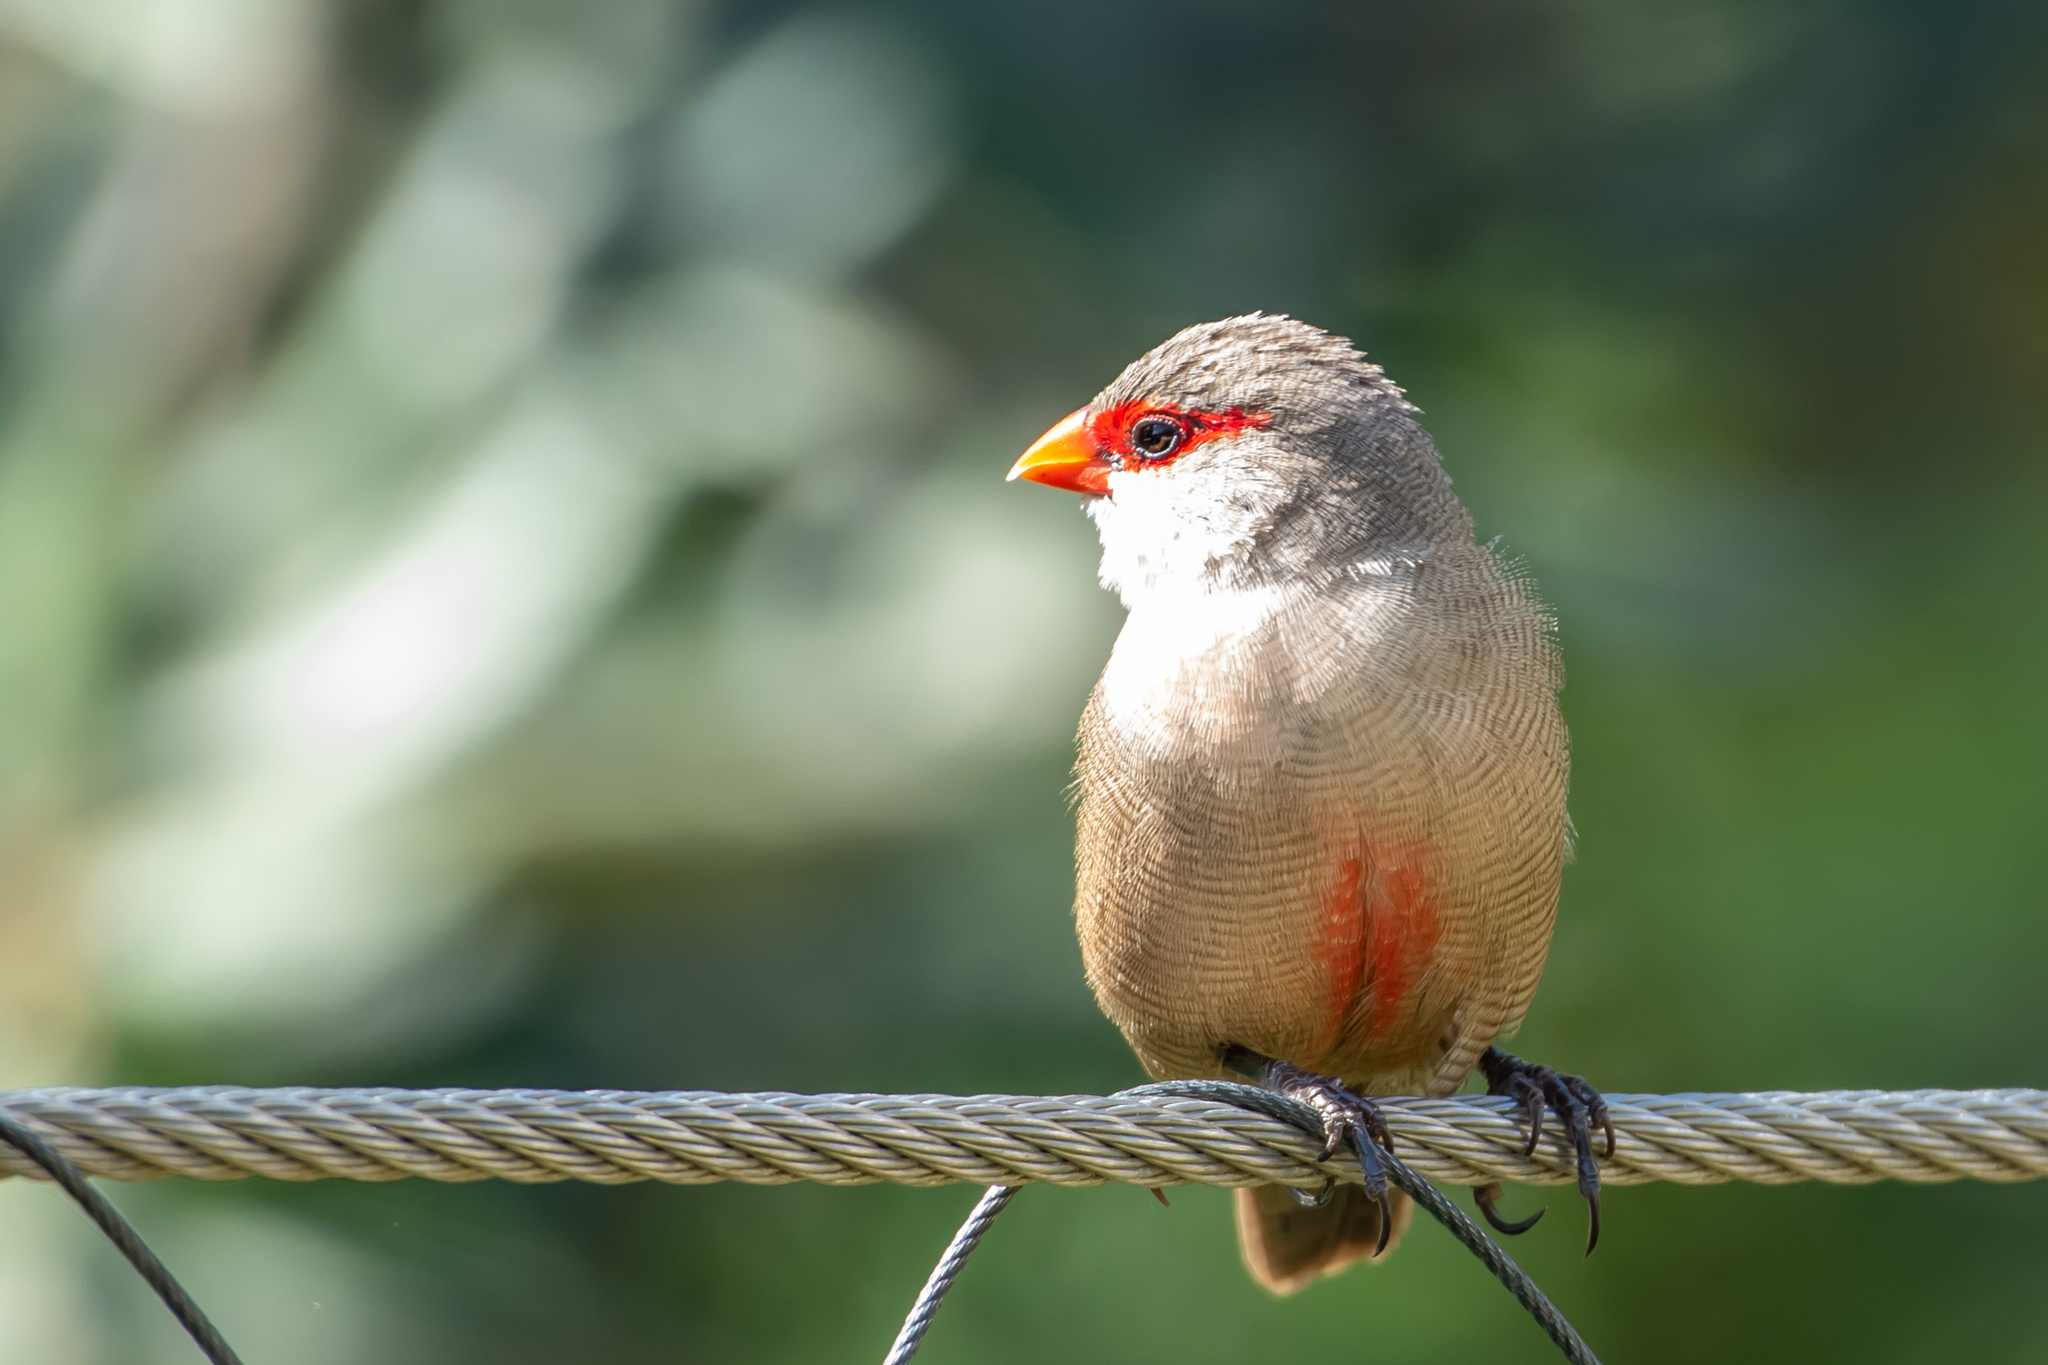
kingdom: Animalia
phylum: Chordata
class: Aves
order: Passeriformes
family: Estrildidae
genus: Estrilda
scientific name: Estrilda astrild
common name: Common waxbill
